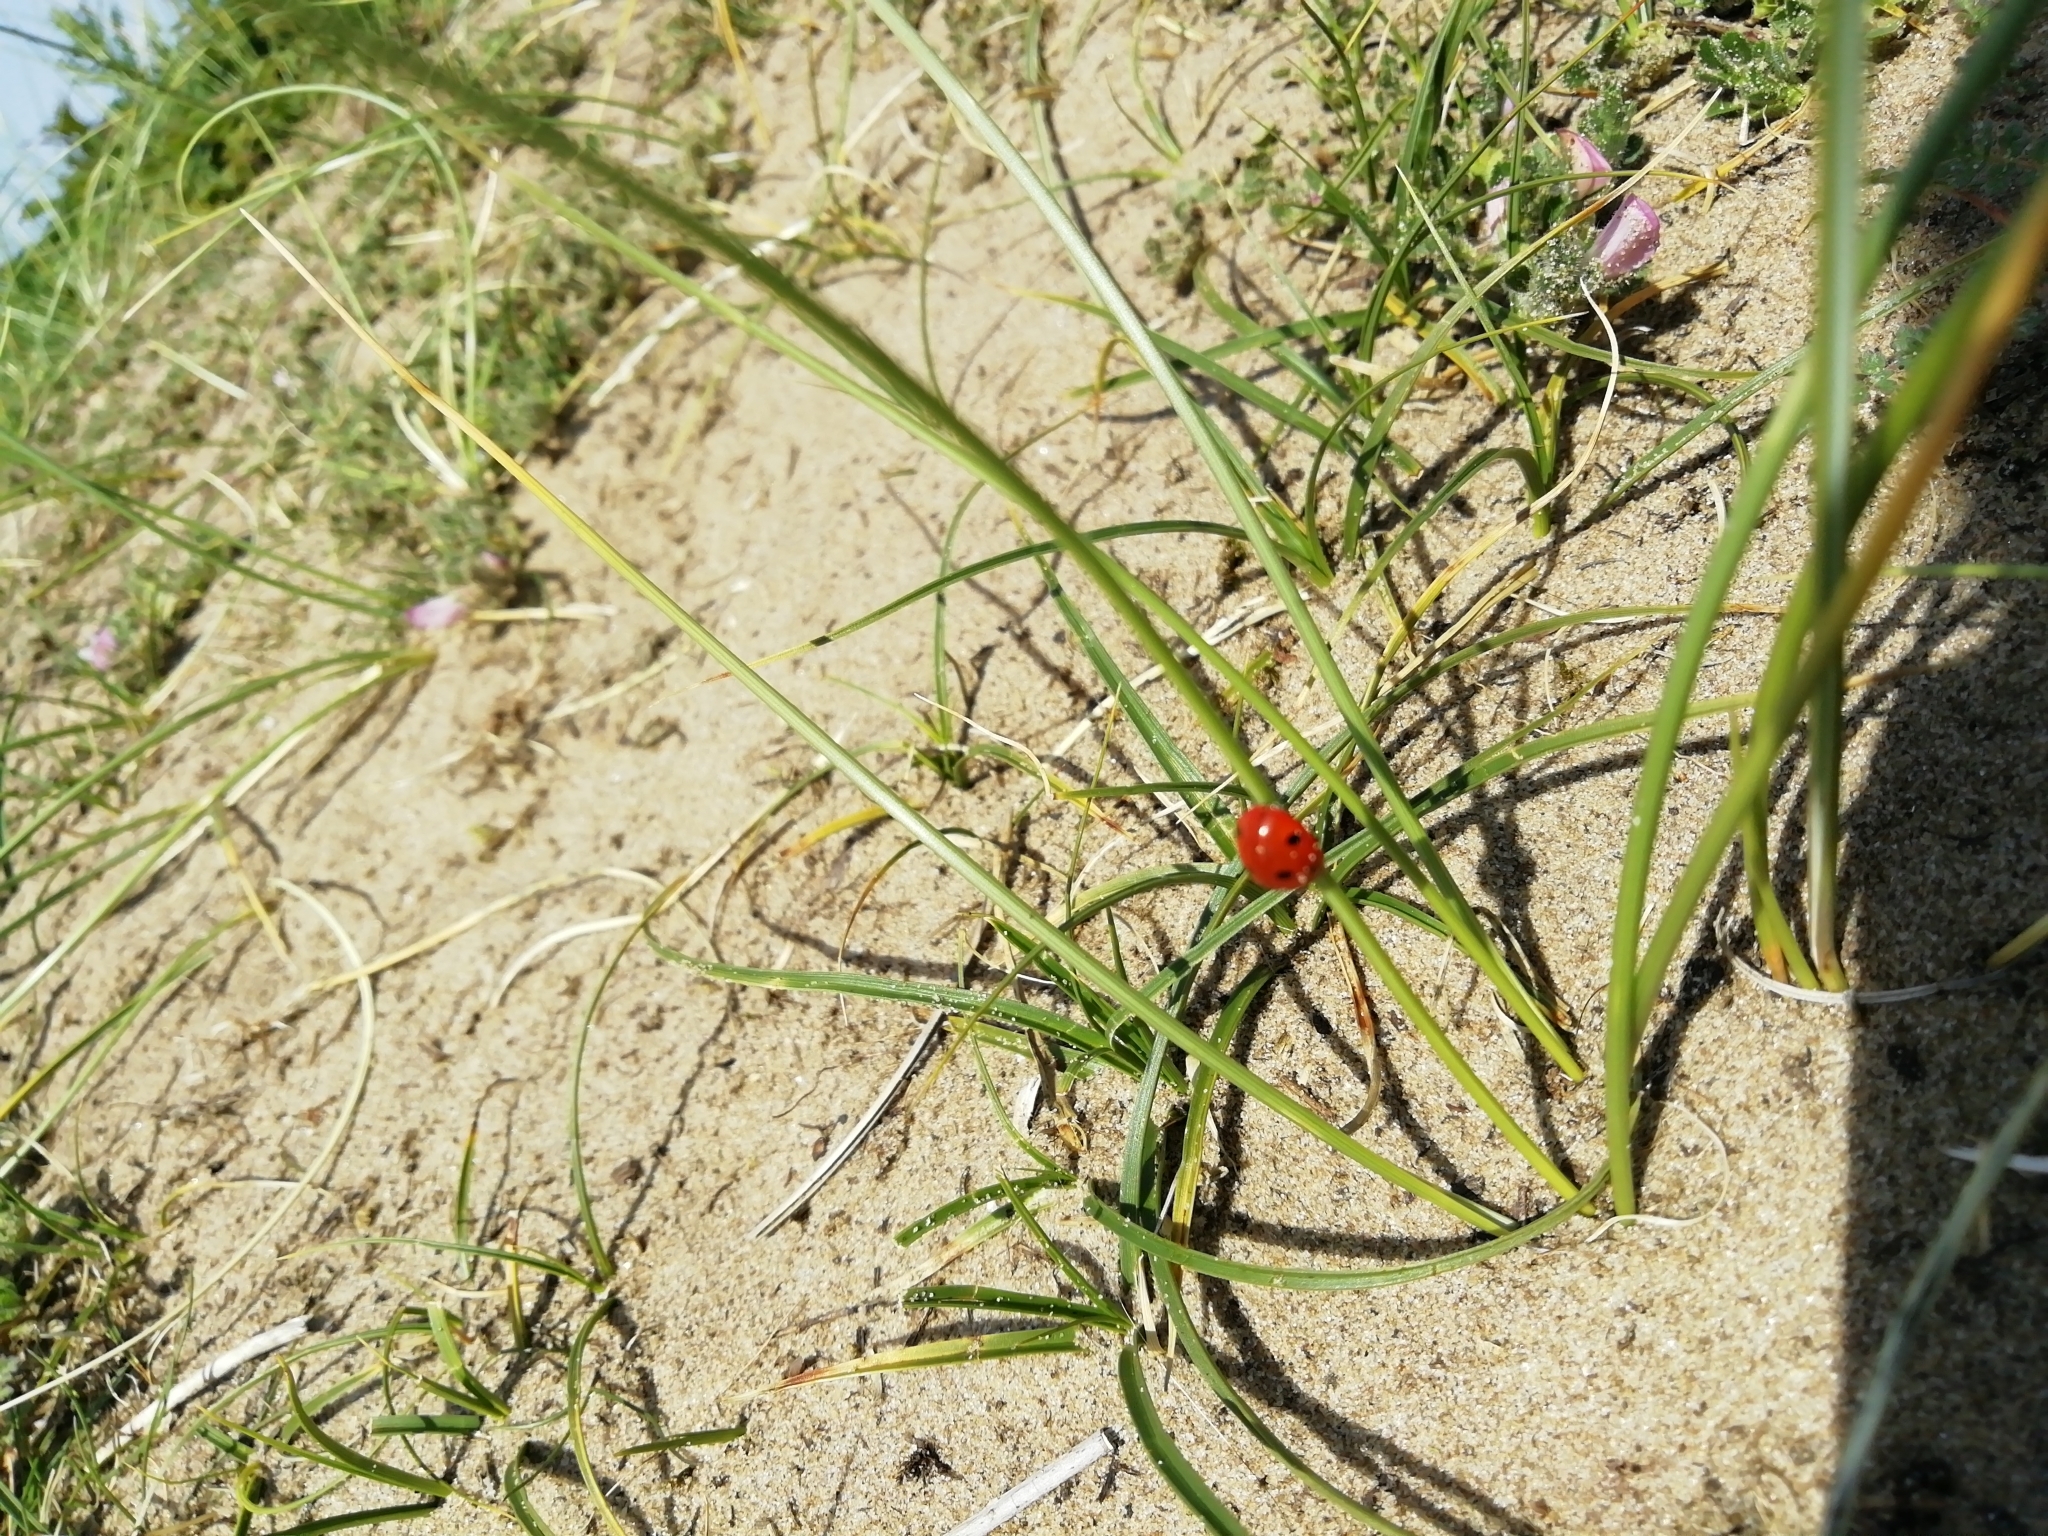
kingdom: Animalia
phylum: Arthropoda
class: Insecta
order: Coleoptera
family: Coccinellidae
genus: Coccinella
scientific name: Coccinella septempunctata
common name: Sevenspotted lady beetle
